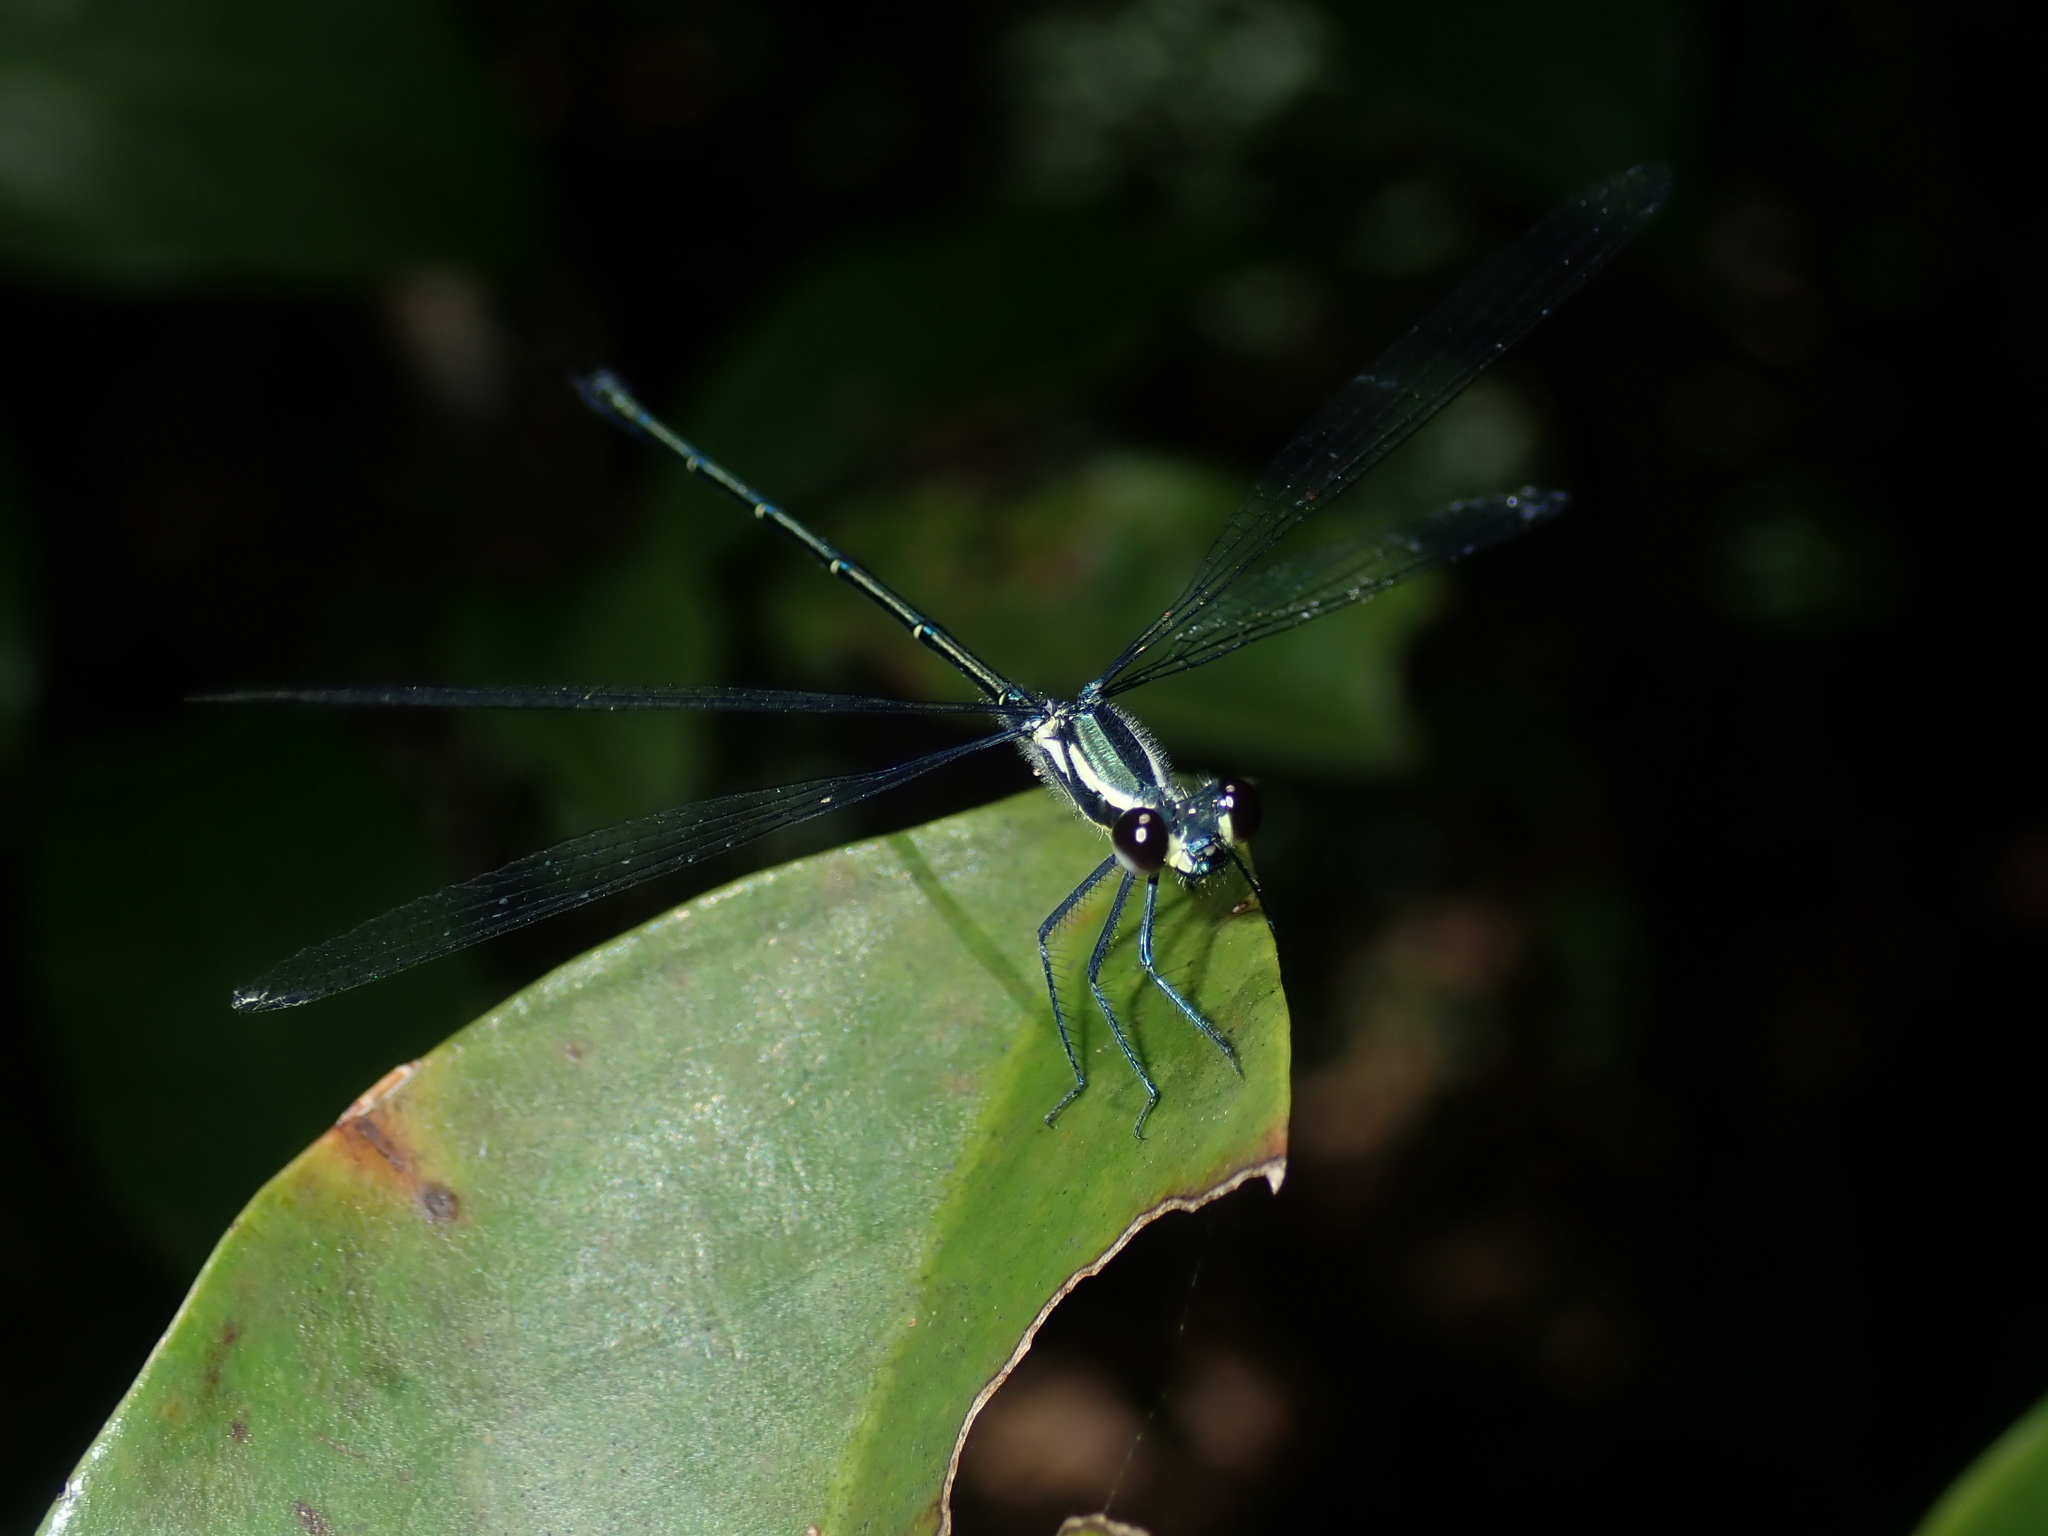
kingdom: Animalia
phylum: Arthropoda
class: Insecta
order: Odonata
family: Argiolestidae
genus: Austroargiolestes
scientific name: Austroargiolestes icteromelas
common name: Common flatwing
